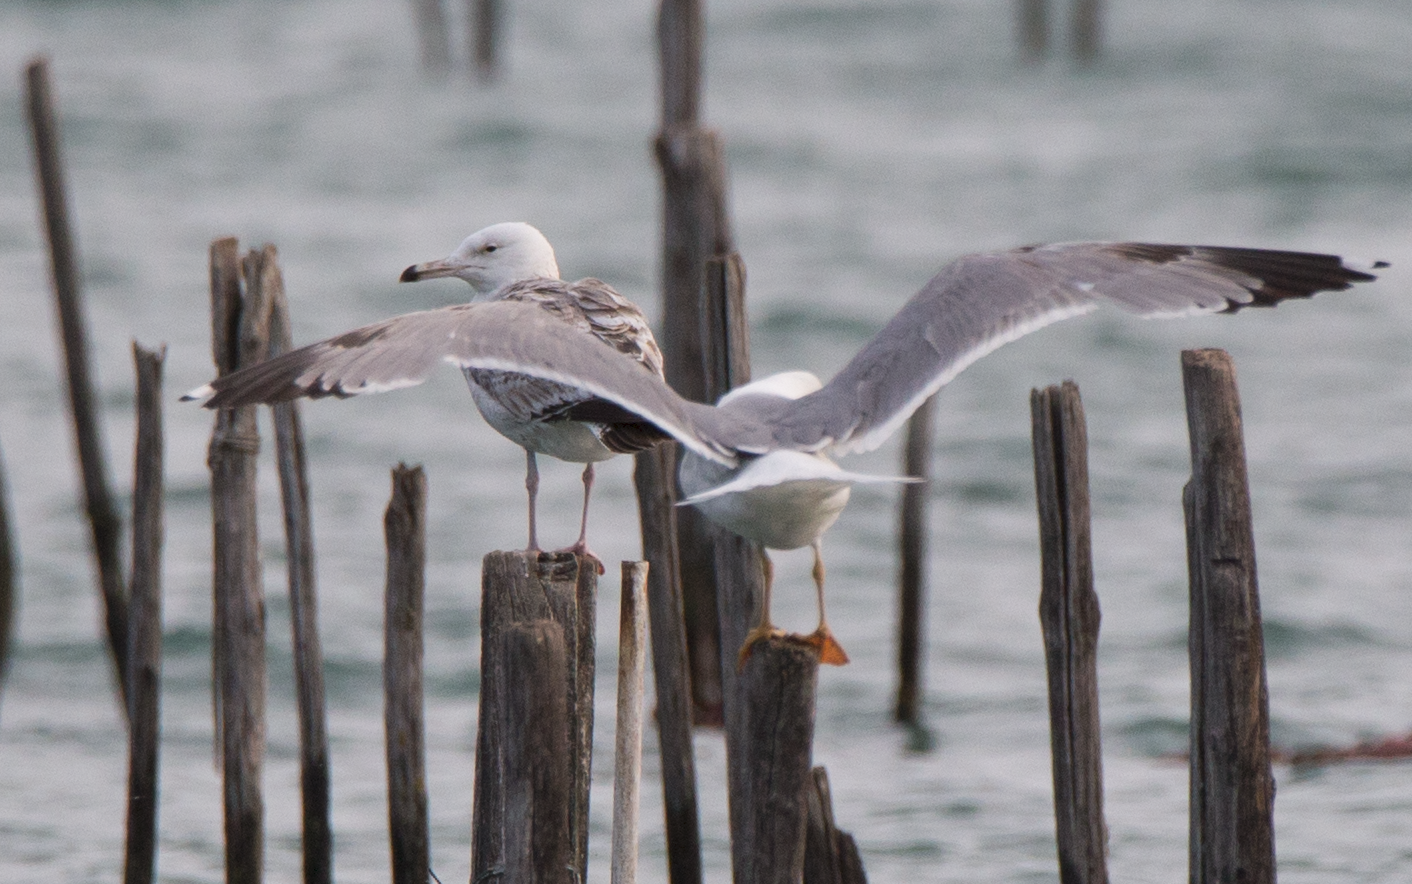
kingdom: Animalia
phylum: Chordata
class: Aves
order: Charadriiformes
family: Laridae
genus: Larus
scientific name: Larus cachinnans
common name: Caspian gull
